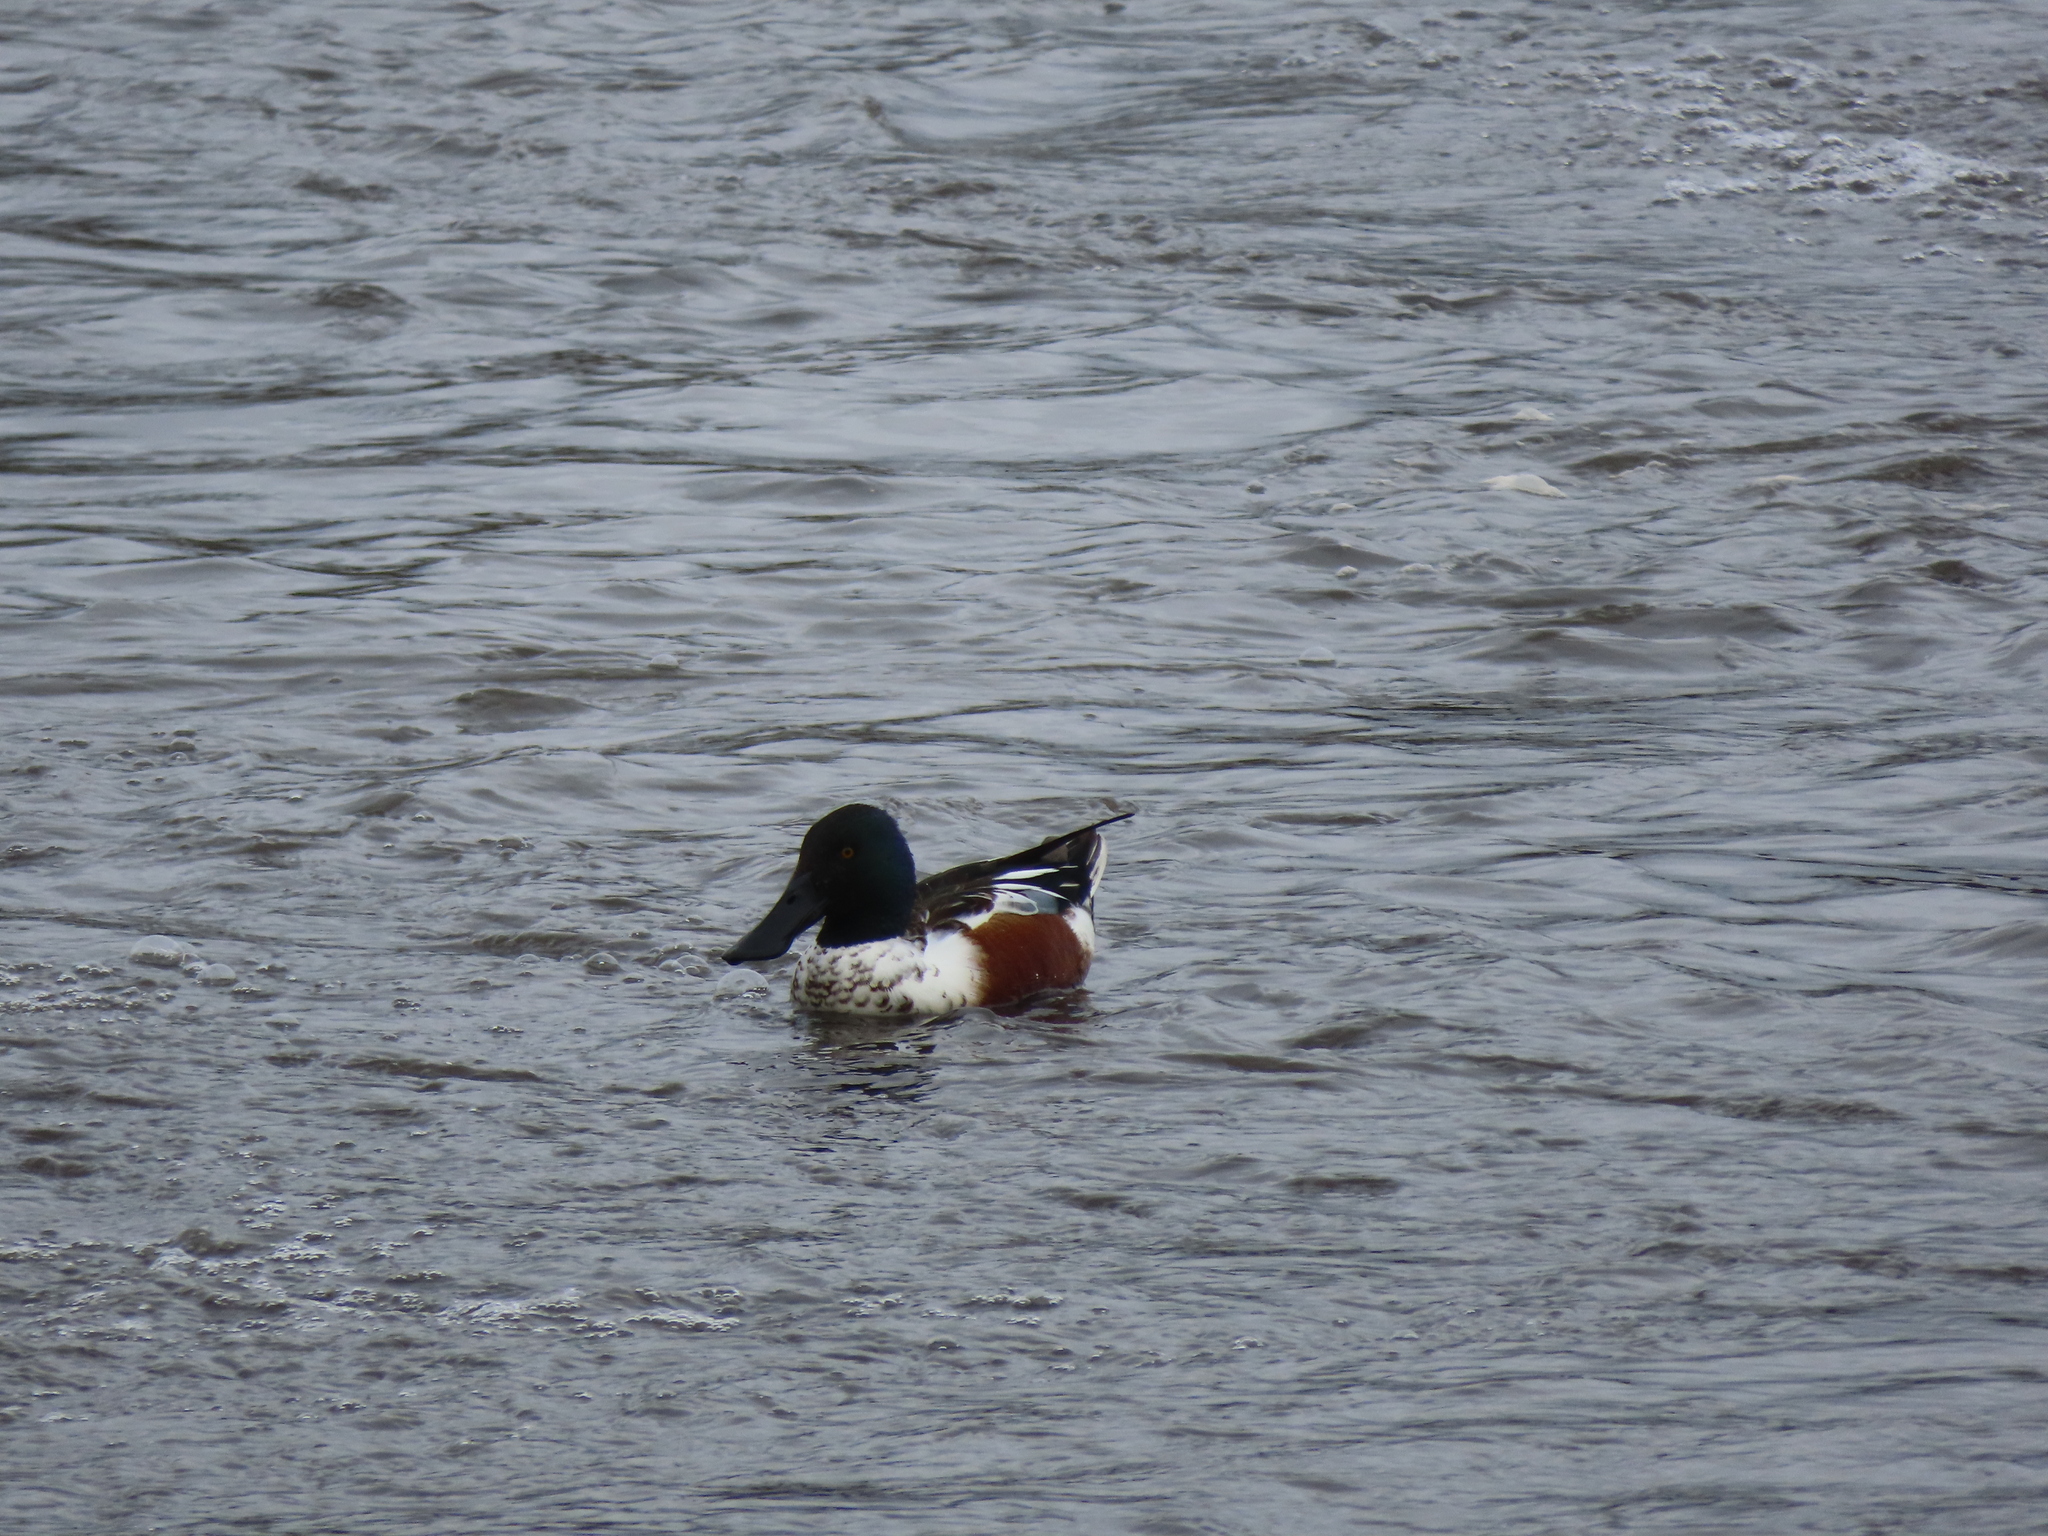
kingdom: Animalia
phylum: Chordata
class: Aves
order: Anseriformes
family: Anatidae
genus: Spatula
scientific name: Spatula clypeata
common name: Northern shoveler
